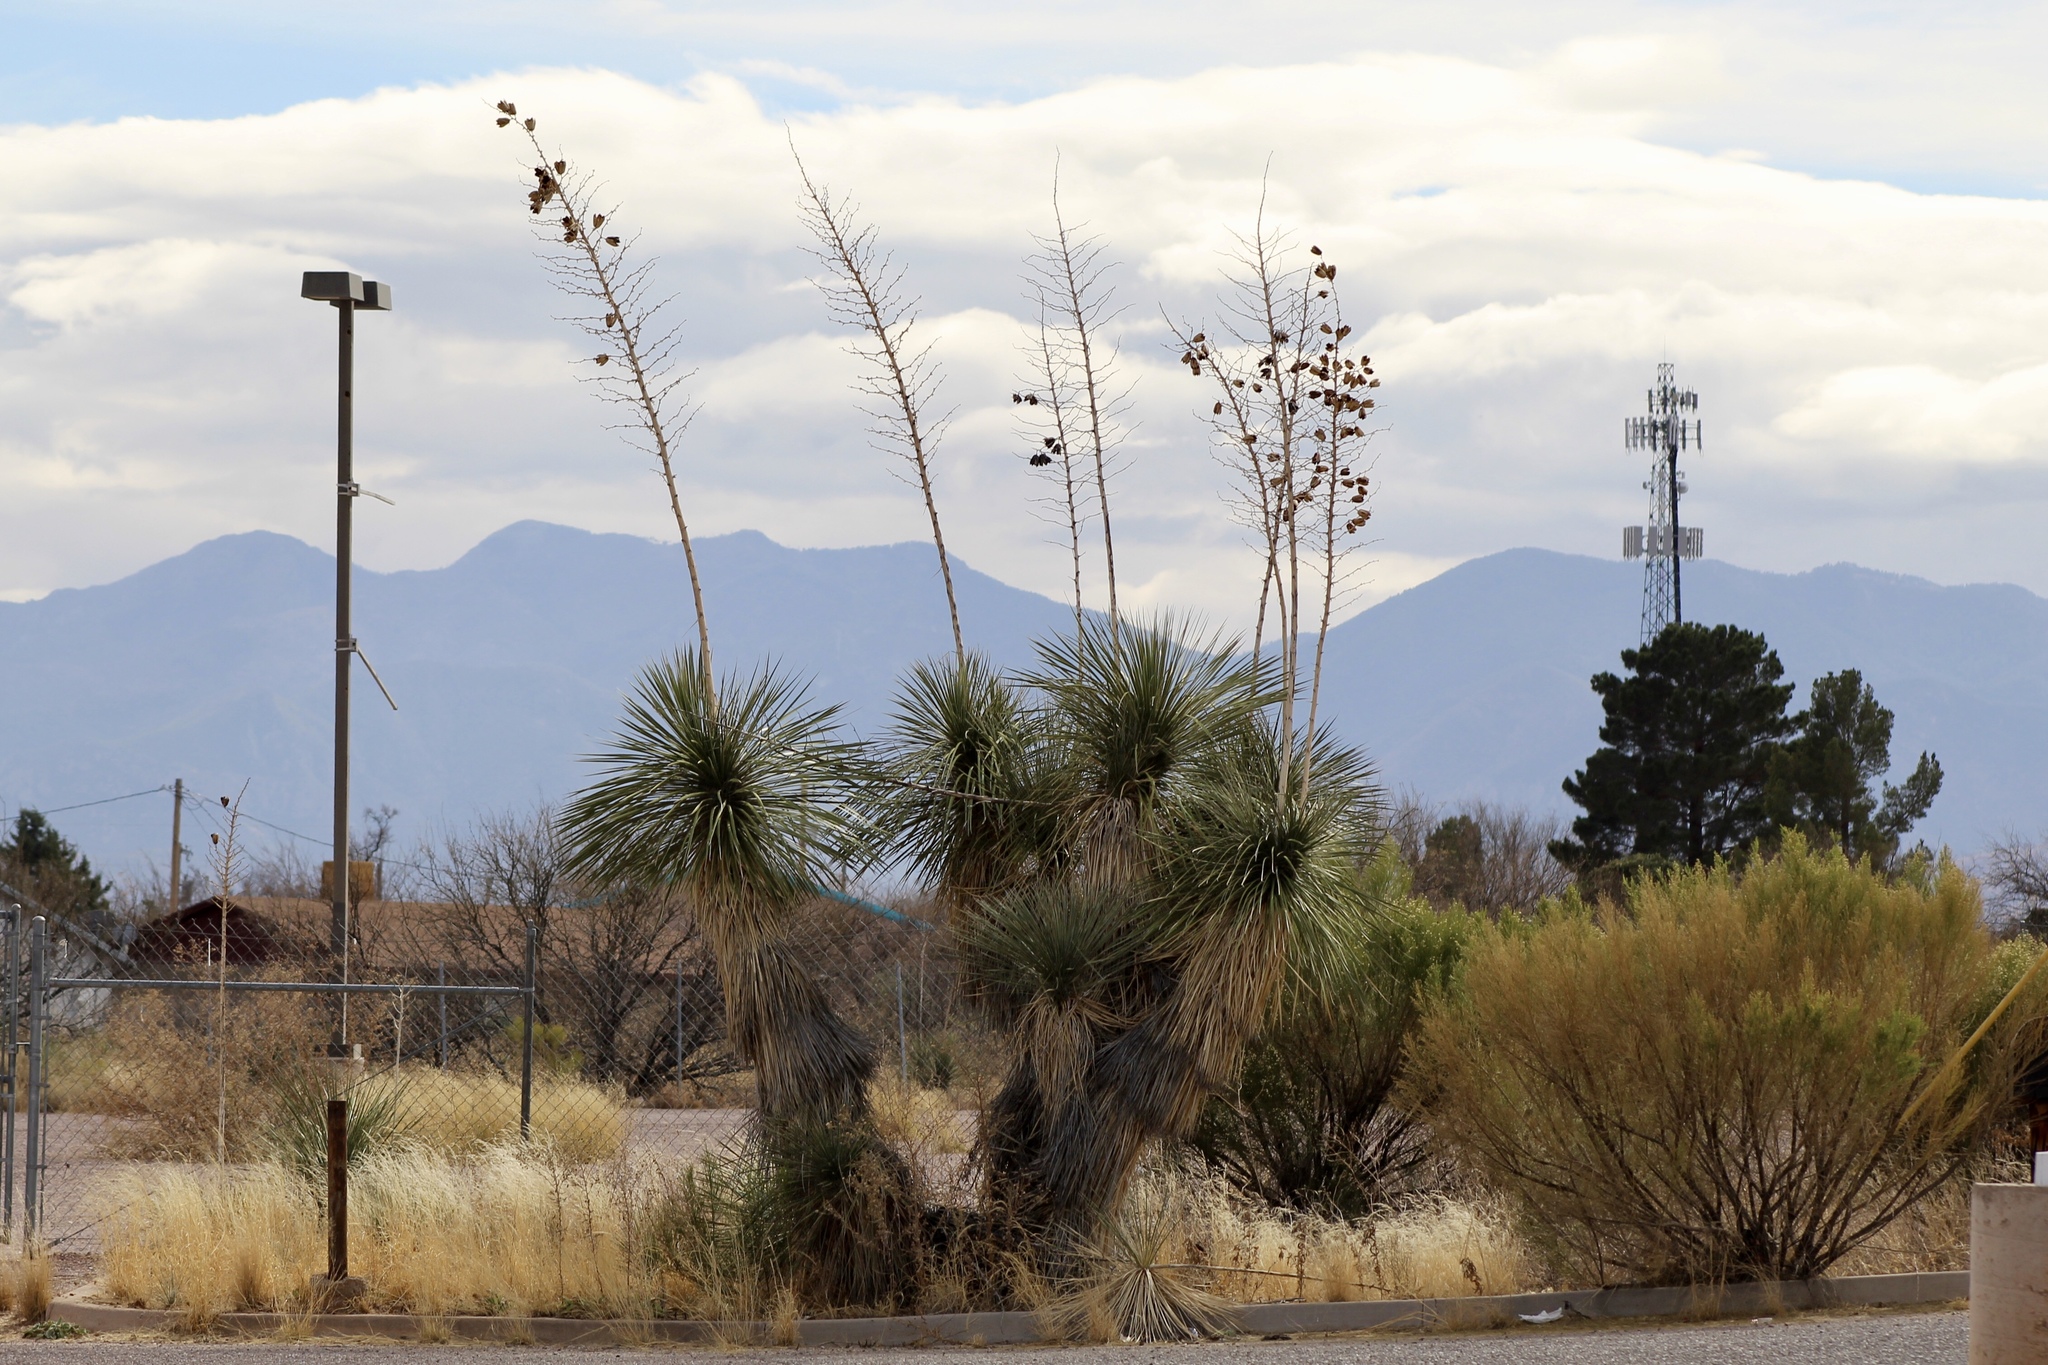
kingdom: Plantae
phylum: Tracheophyta
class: Liliopsida
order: Asparagales
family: Asparagaceae
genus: Yucca
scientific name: Yucca elata
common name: Palmella
